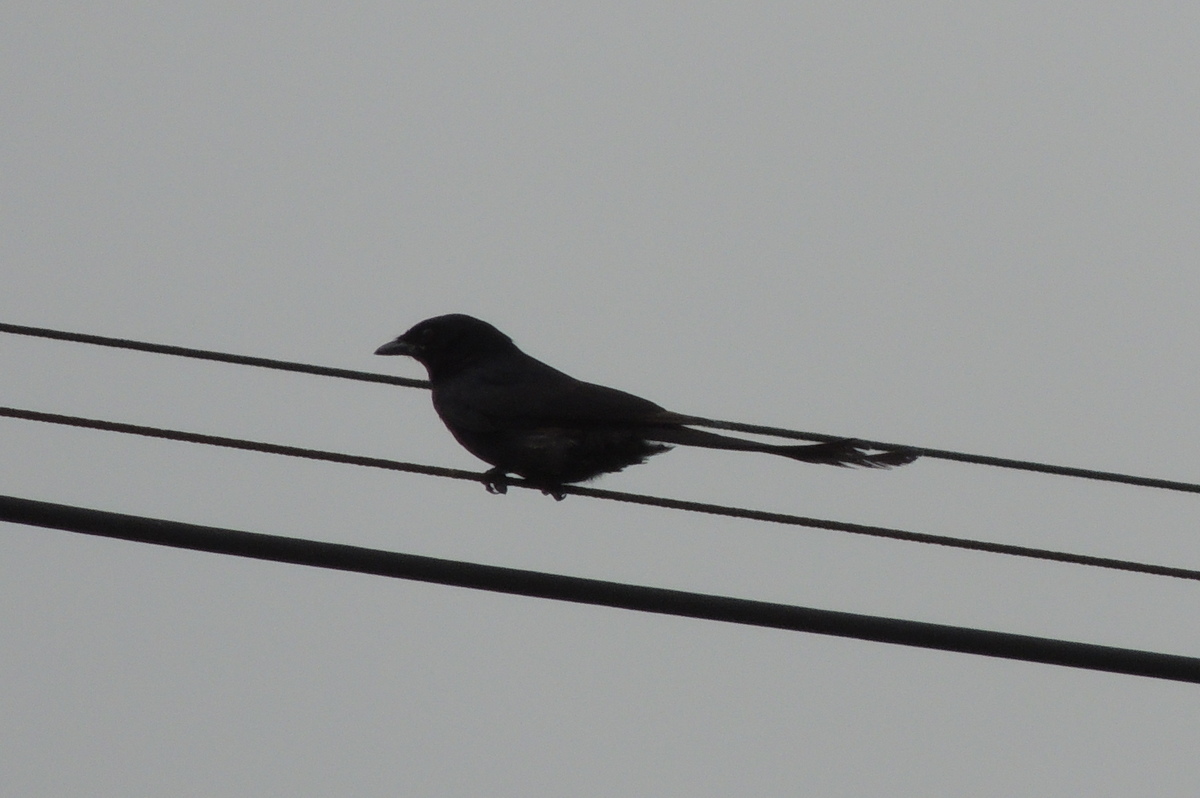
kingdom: Animalia
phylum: Chordata
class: Aves
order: Passeriformes
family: Dicruridae
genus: Dicrurus
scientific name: Dicrurus macrocercus
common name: Black drongo
